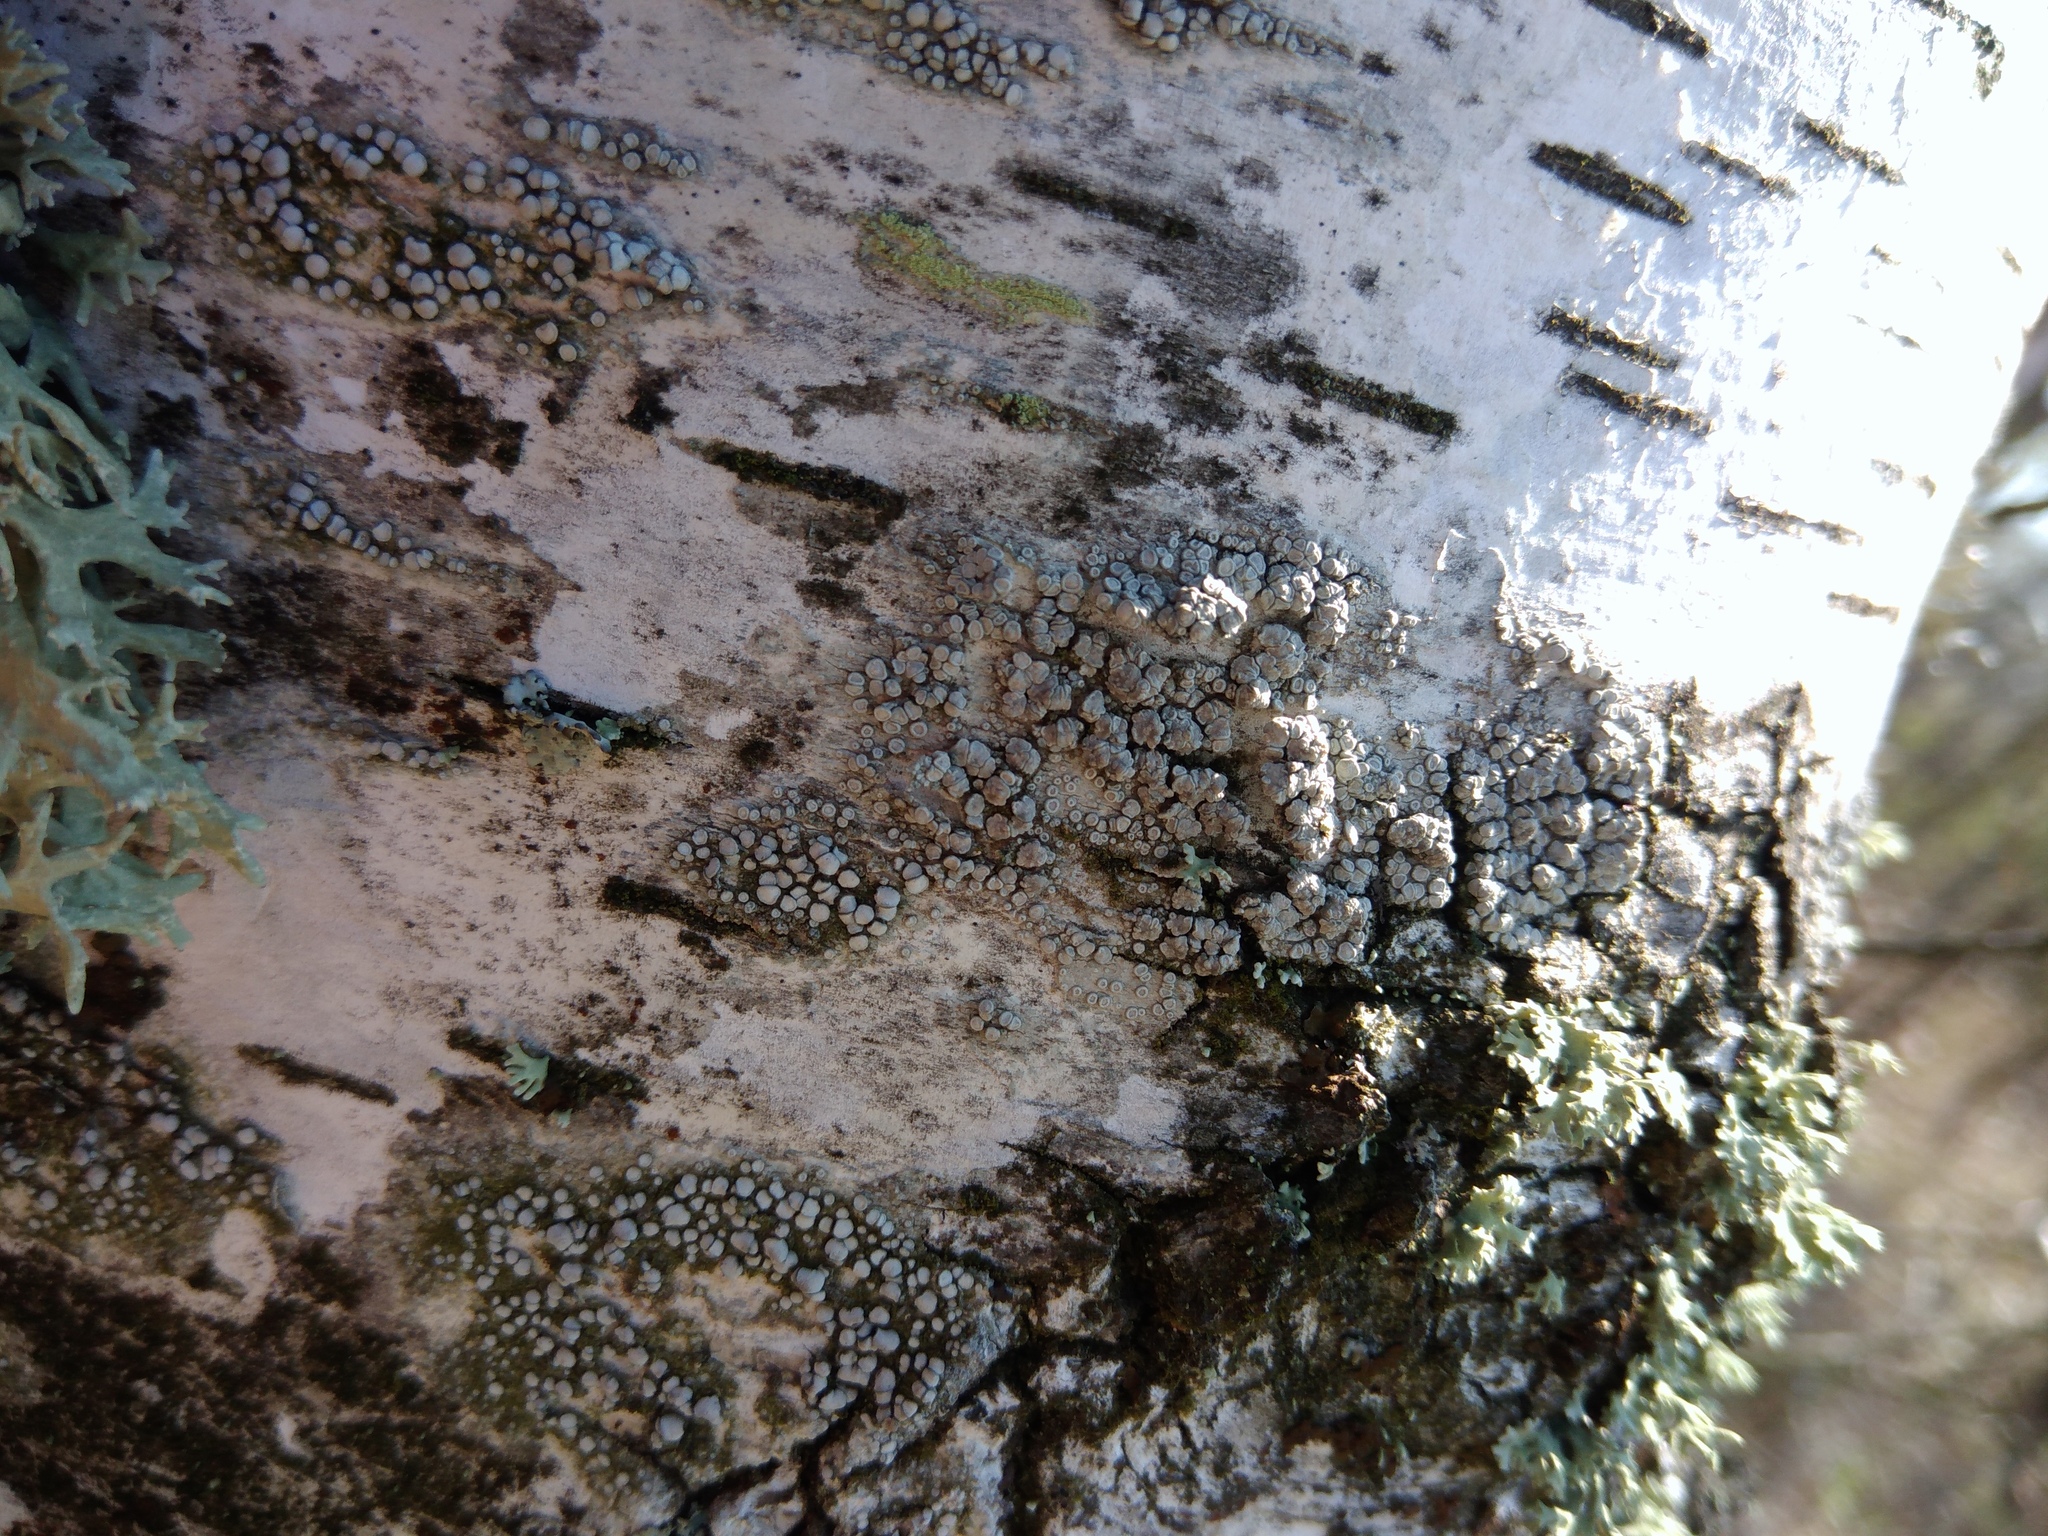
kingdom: Fungi
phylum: Ascomycota
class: Lecanoromycetes
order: Lecanorales
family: Lecanoraceae
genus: Glaucomaria
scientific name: Glaucomaria carpinea
